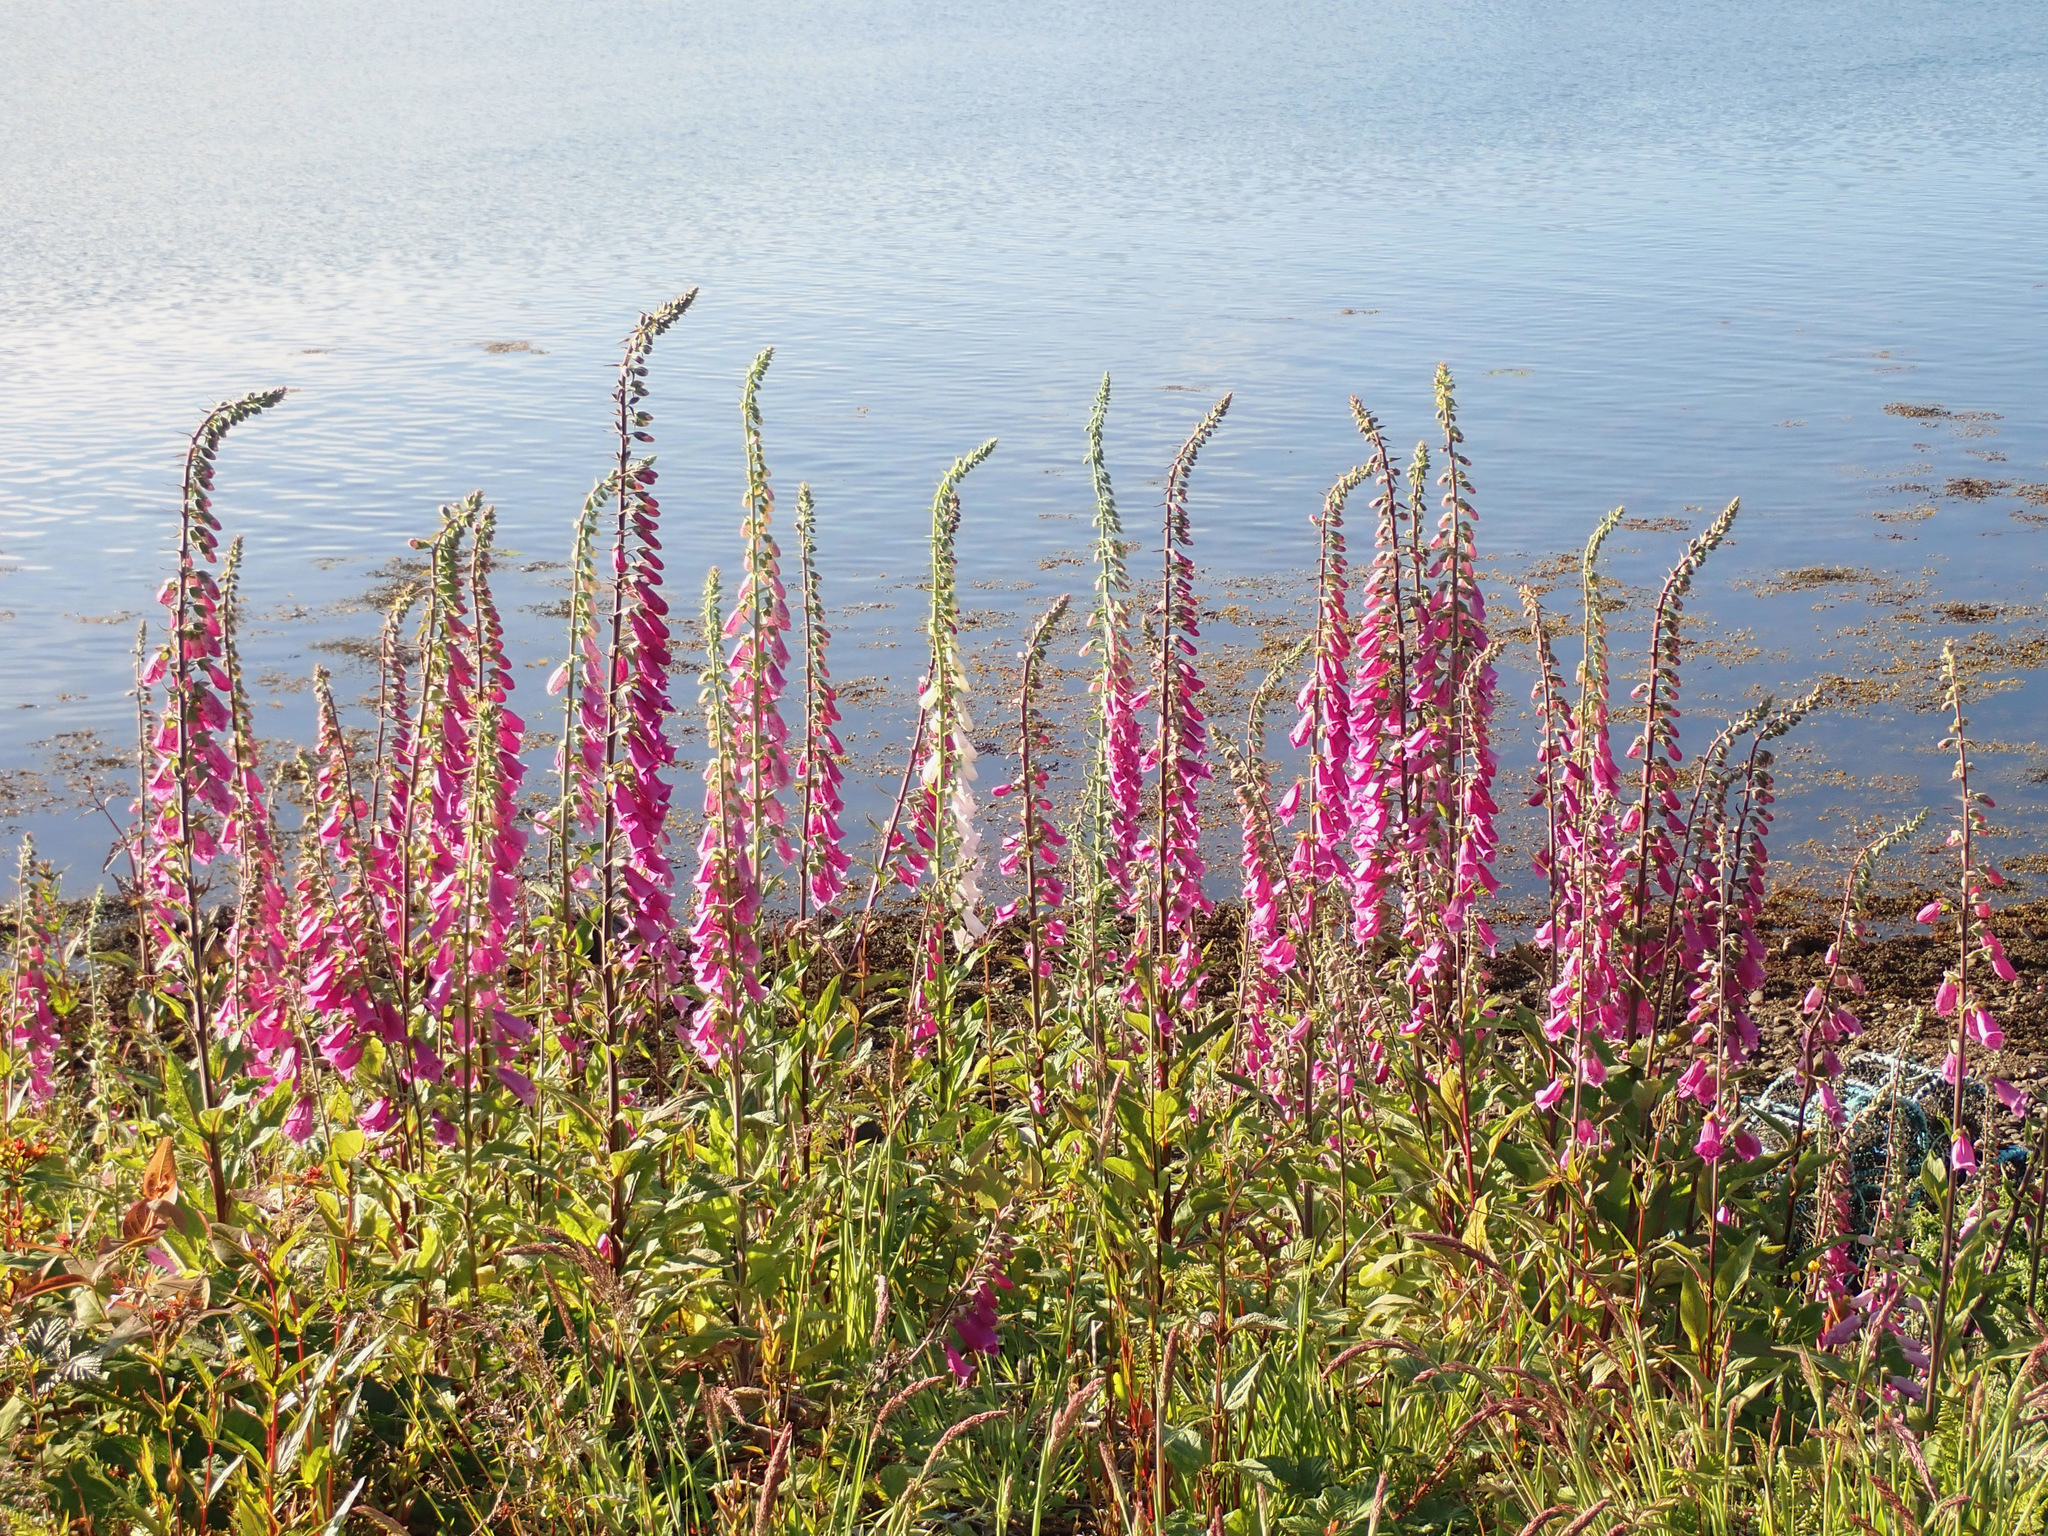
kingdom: Plantae
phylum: Tracheophyta
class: Magnoliopsida
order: Lamiales
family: Plantaginaceae
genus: Digitalis
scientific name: Digitalis purpurea
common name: Foxglove
